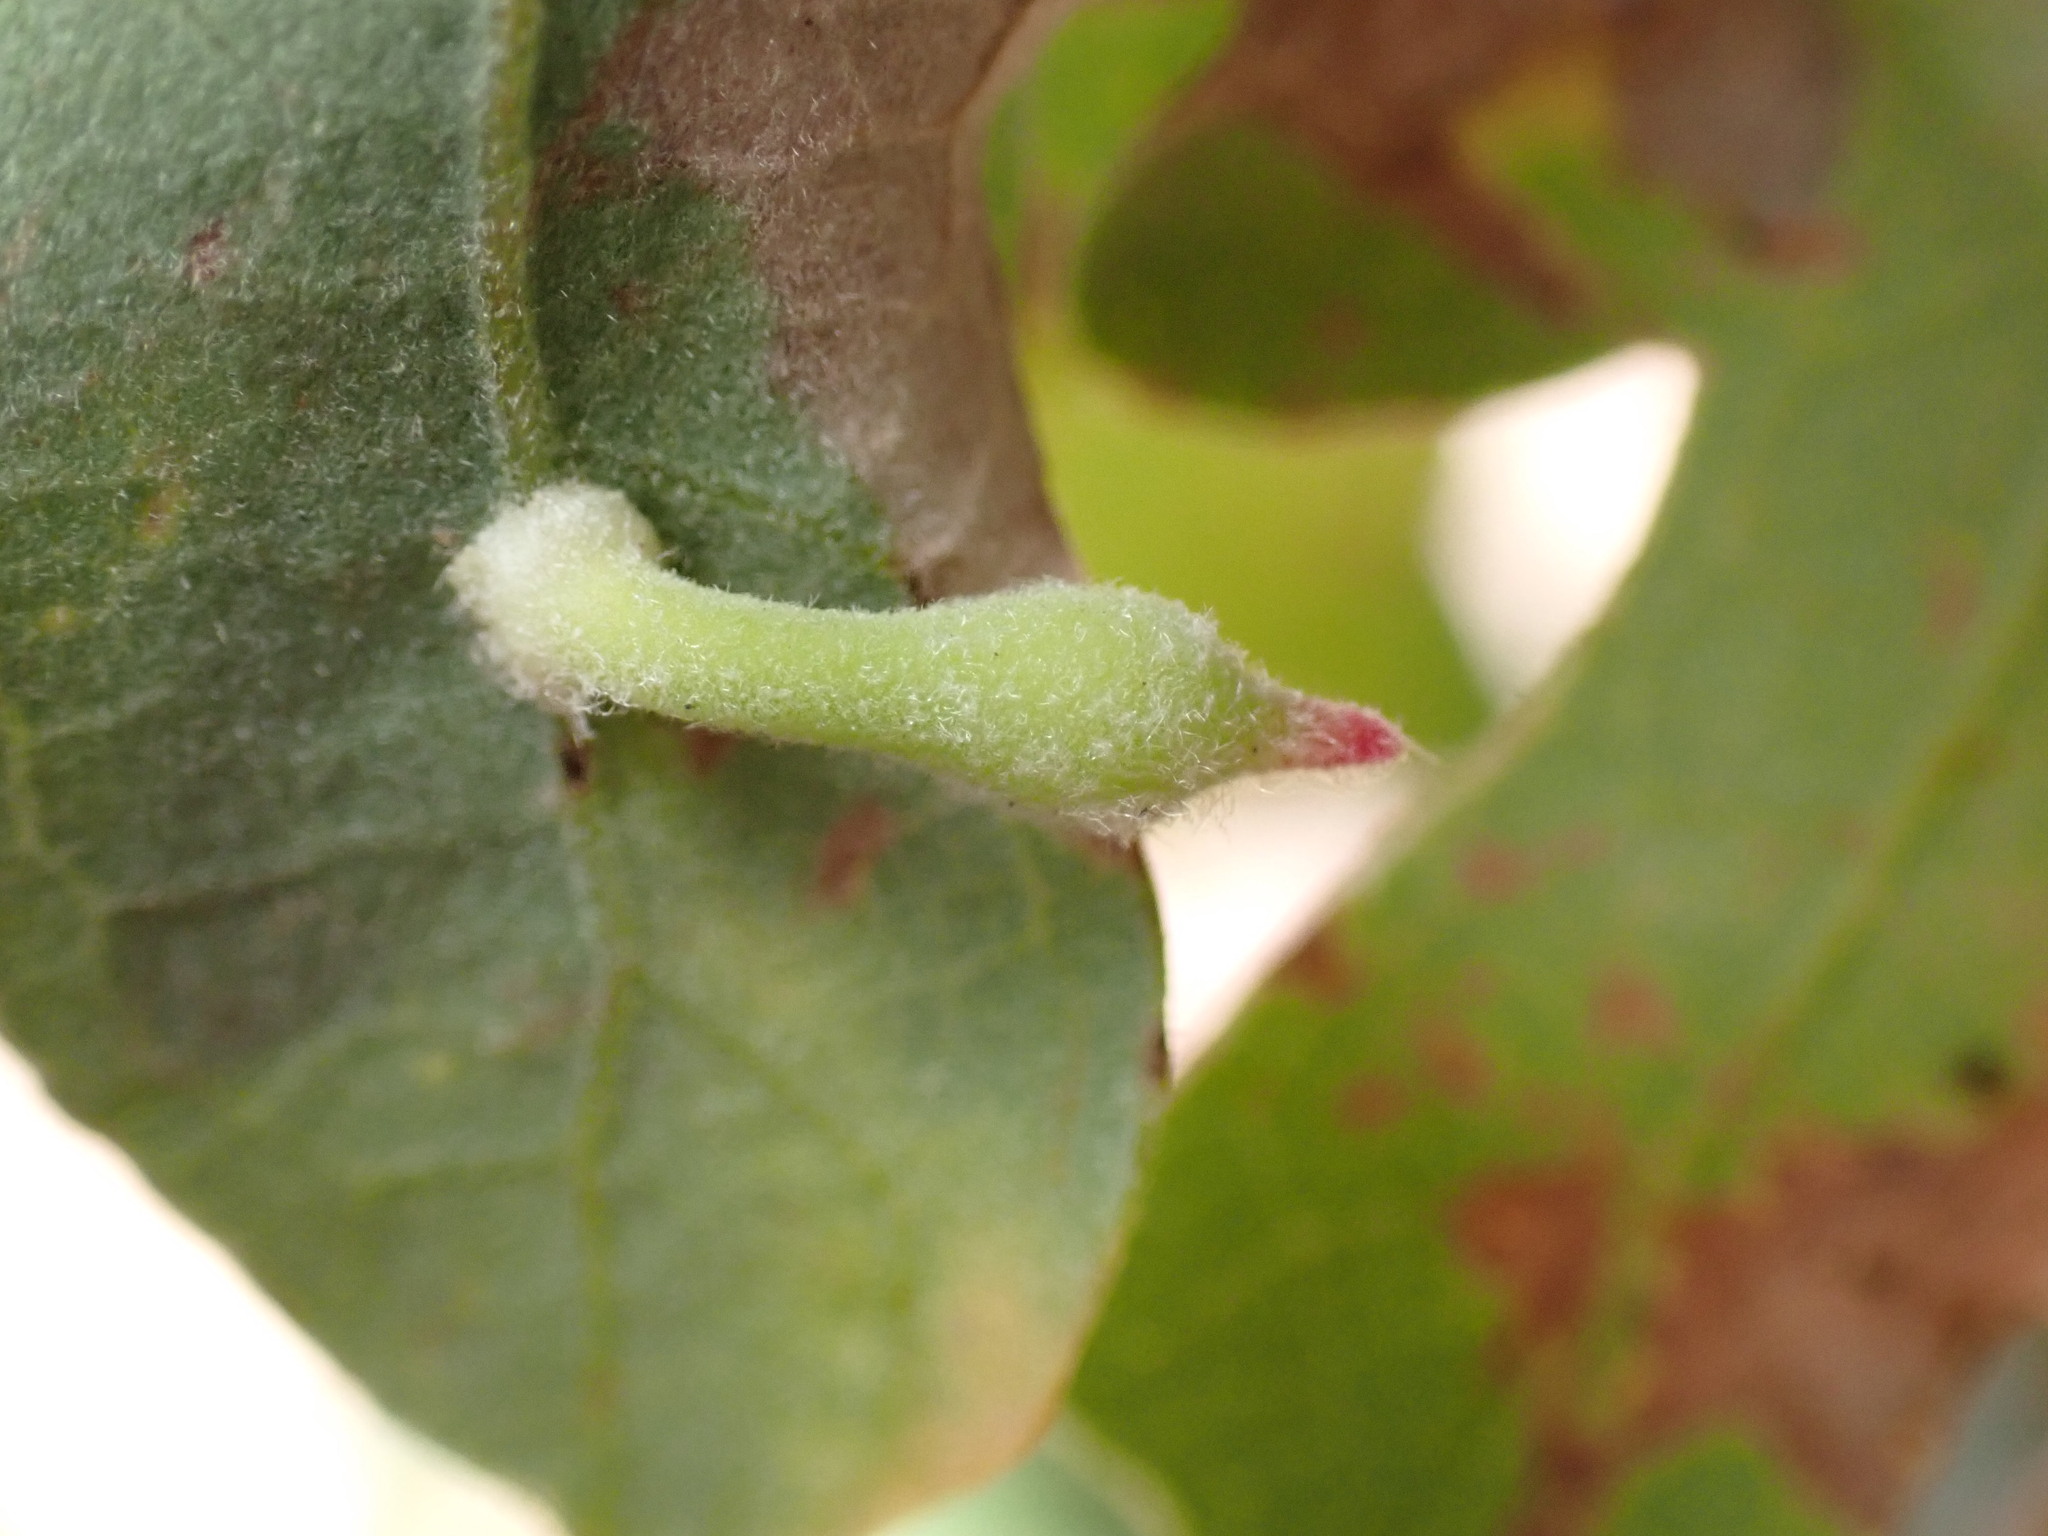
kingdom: Animalia
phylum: Arthropoda
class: Insecta
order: Hymenoptera
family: Cynipidae
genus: Atrusca
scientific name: Atrusca
